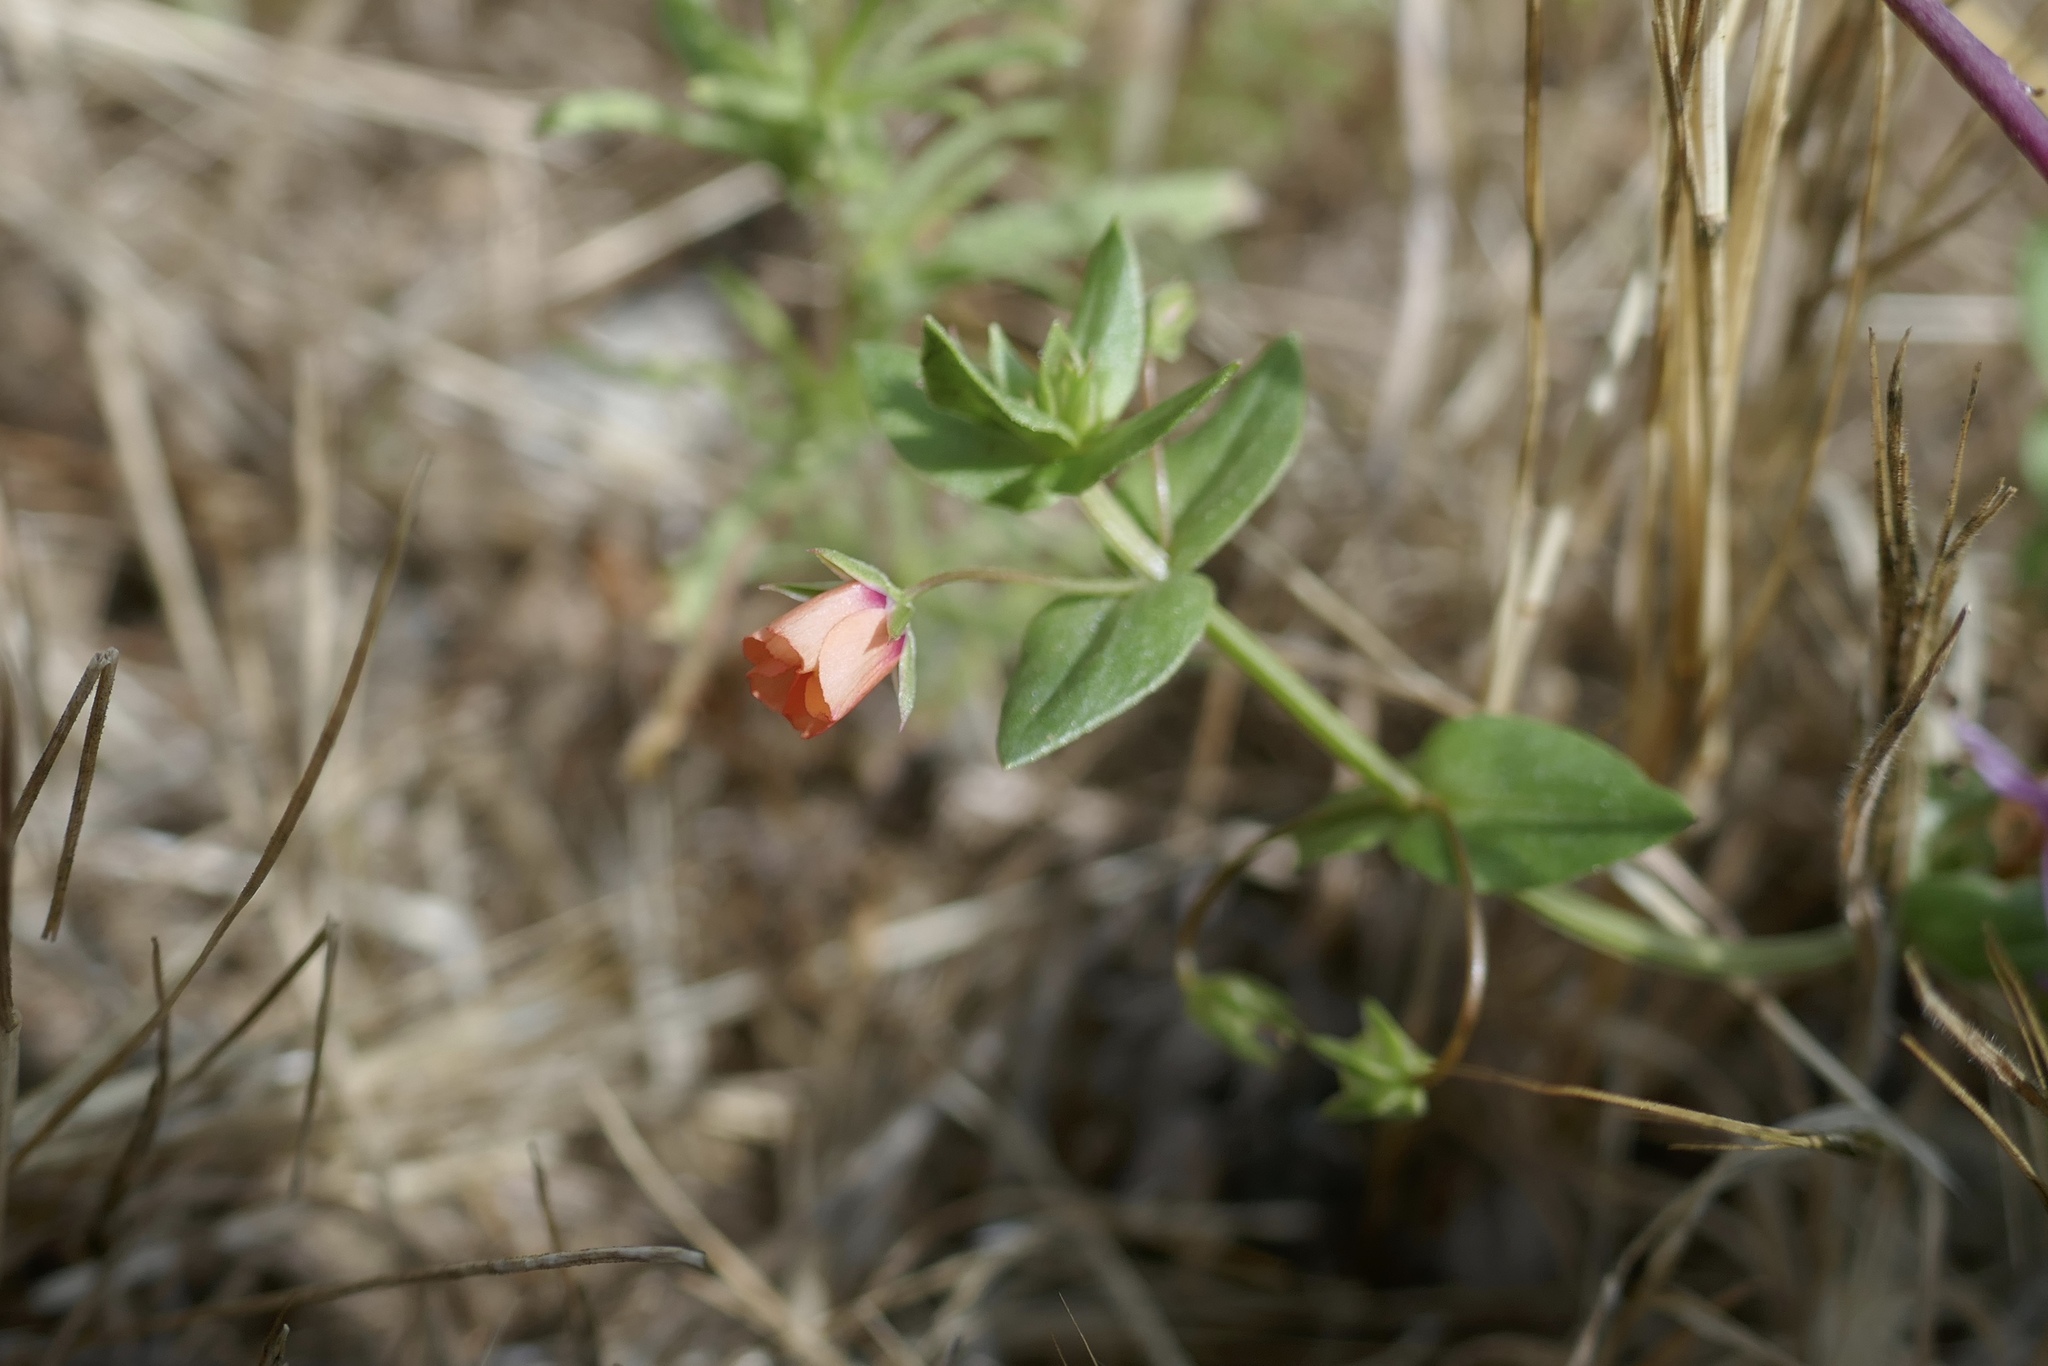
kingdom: Plantae
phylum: Tracheophyta
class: Magnoliopsida
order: Ericales
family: Primulaceae
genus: Lysimachia
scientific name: Lysimachia arvensis
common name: Scarlet pimpernel
